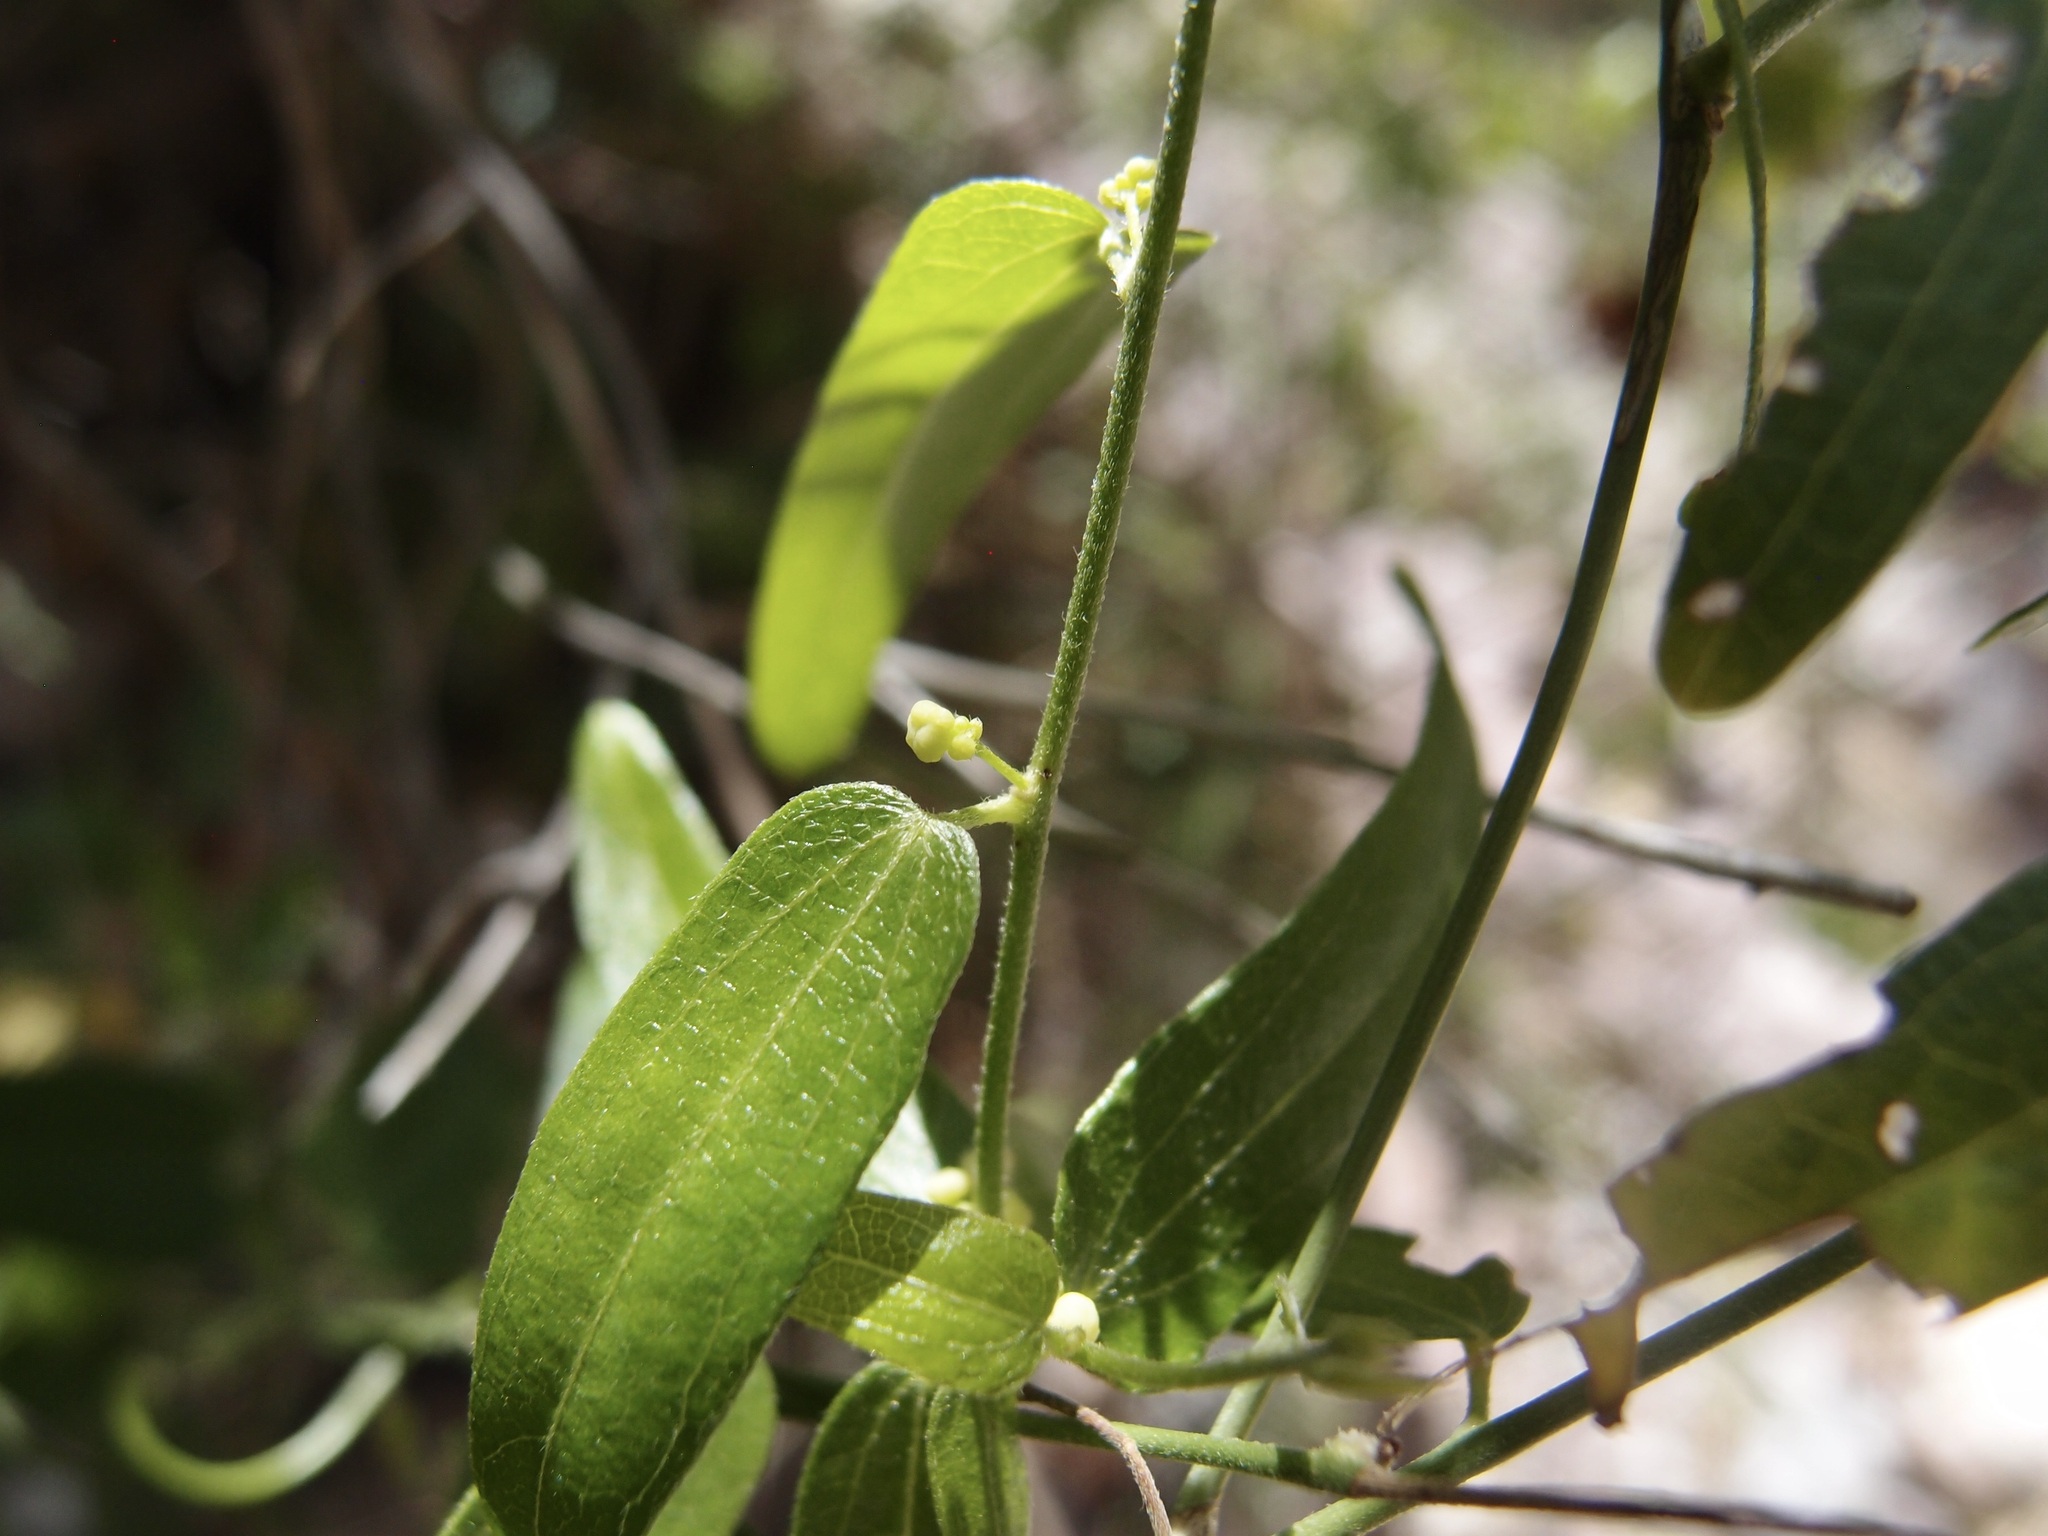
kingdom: Plantae
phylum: Tracheophyta
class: Magnoliopsida
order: Ranunculales
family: Menispermaceae
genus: Cocculus
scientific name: Cocculus diversifolius
